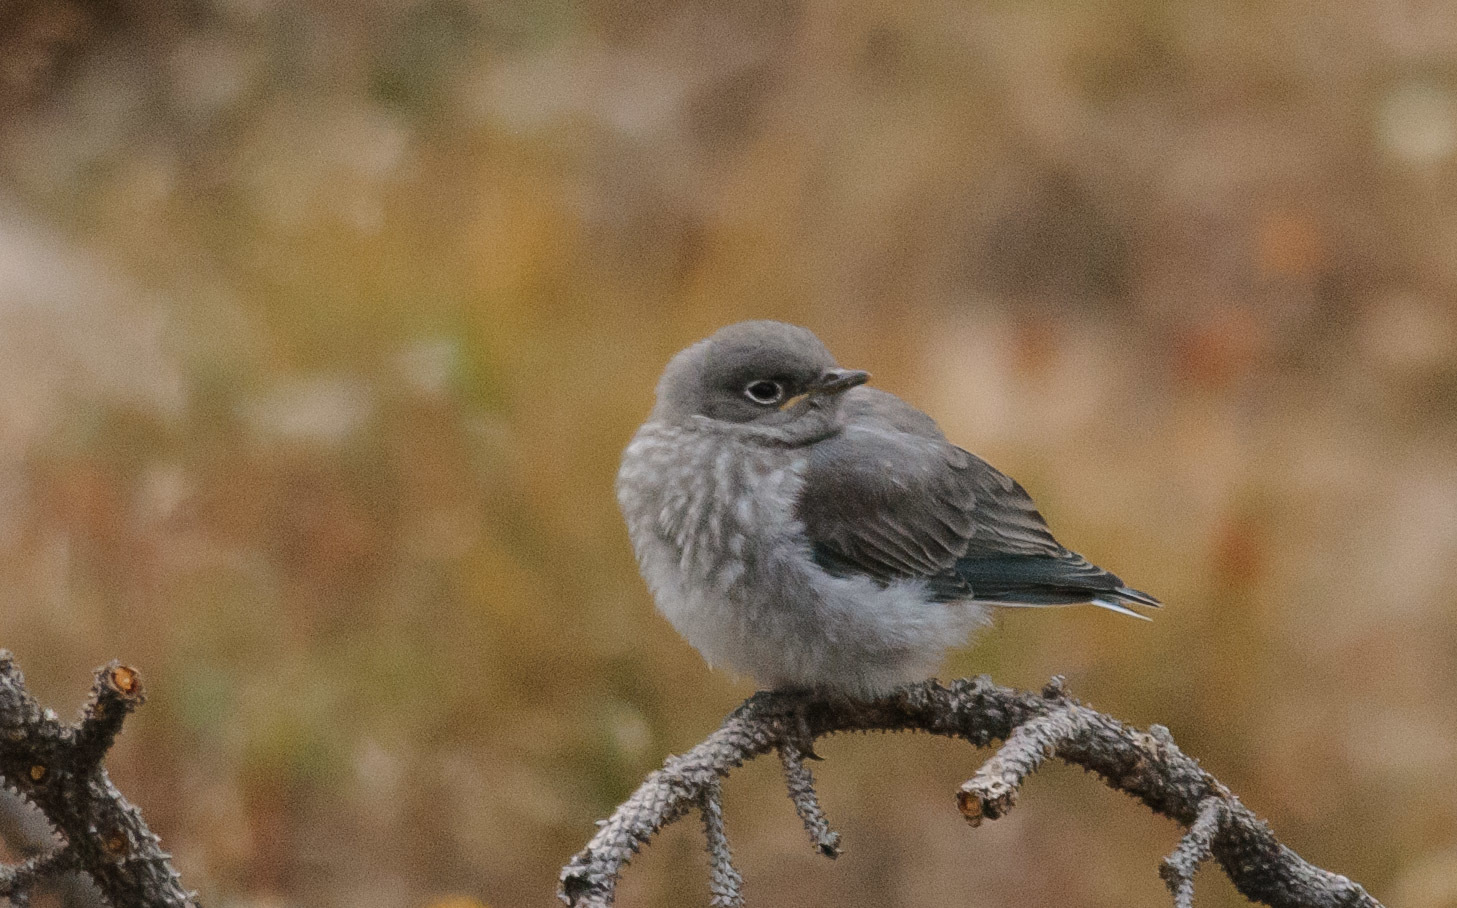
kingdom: Animalia
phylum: Chordata
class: Aves
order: Passeriformes
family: Turdidae
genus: Sialia
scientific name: Sialia currucoides
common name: Mountain bluebird
